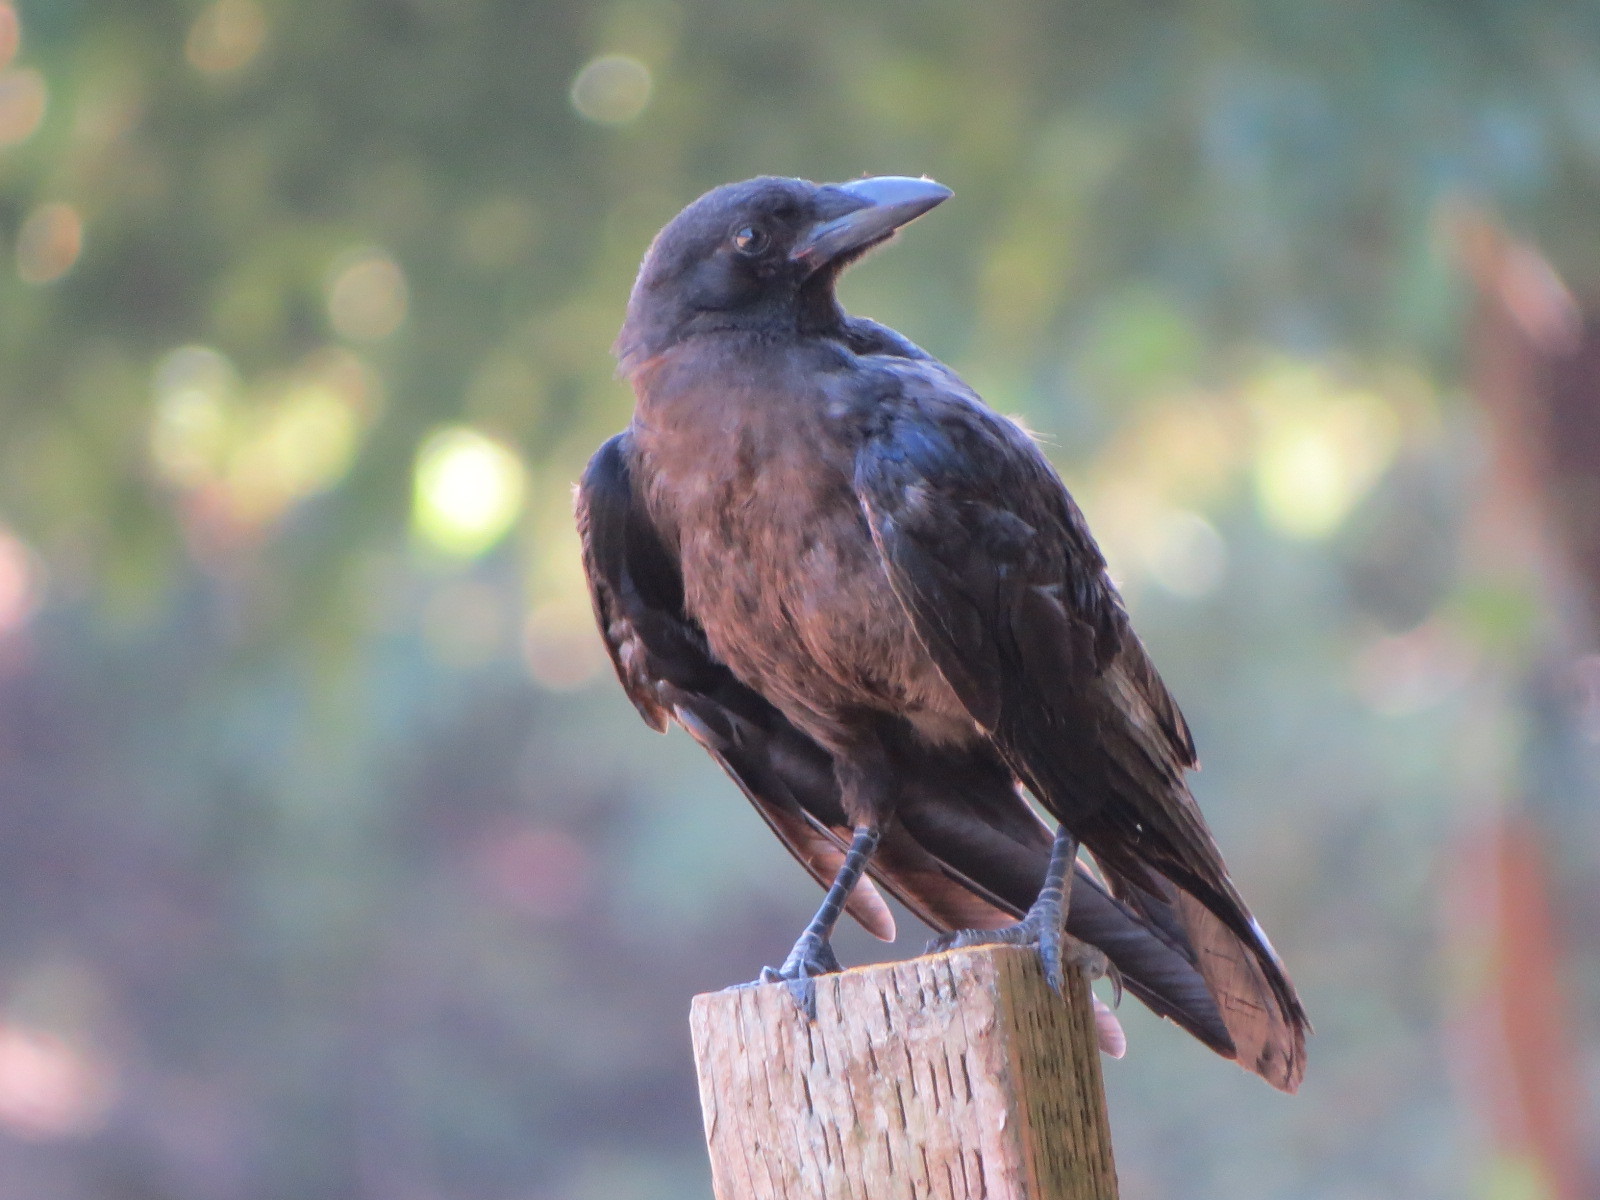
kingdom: Animalia
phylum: Chordata
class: Aves
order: Passeriformes
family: Corvidae
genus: Corvus
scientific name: Corvus brachyrhynchos
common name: American crow
